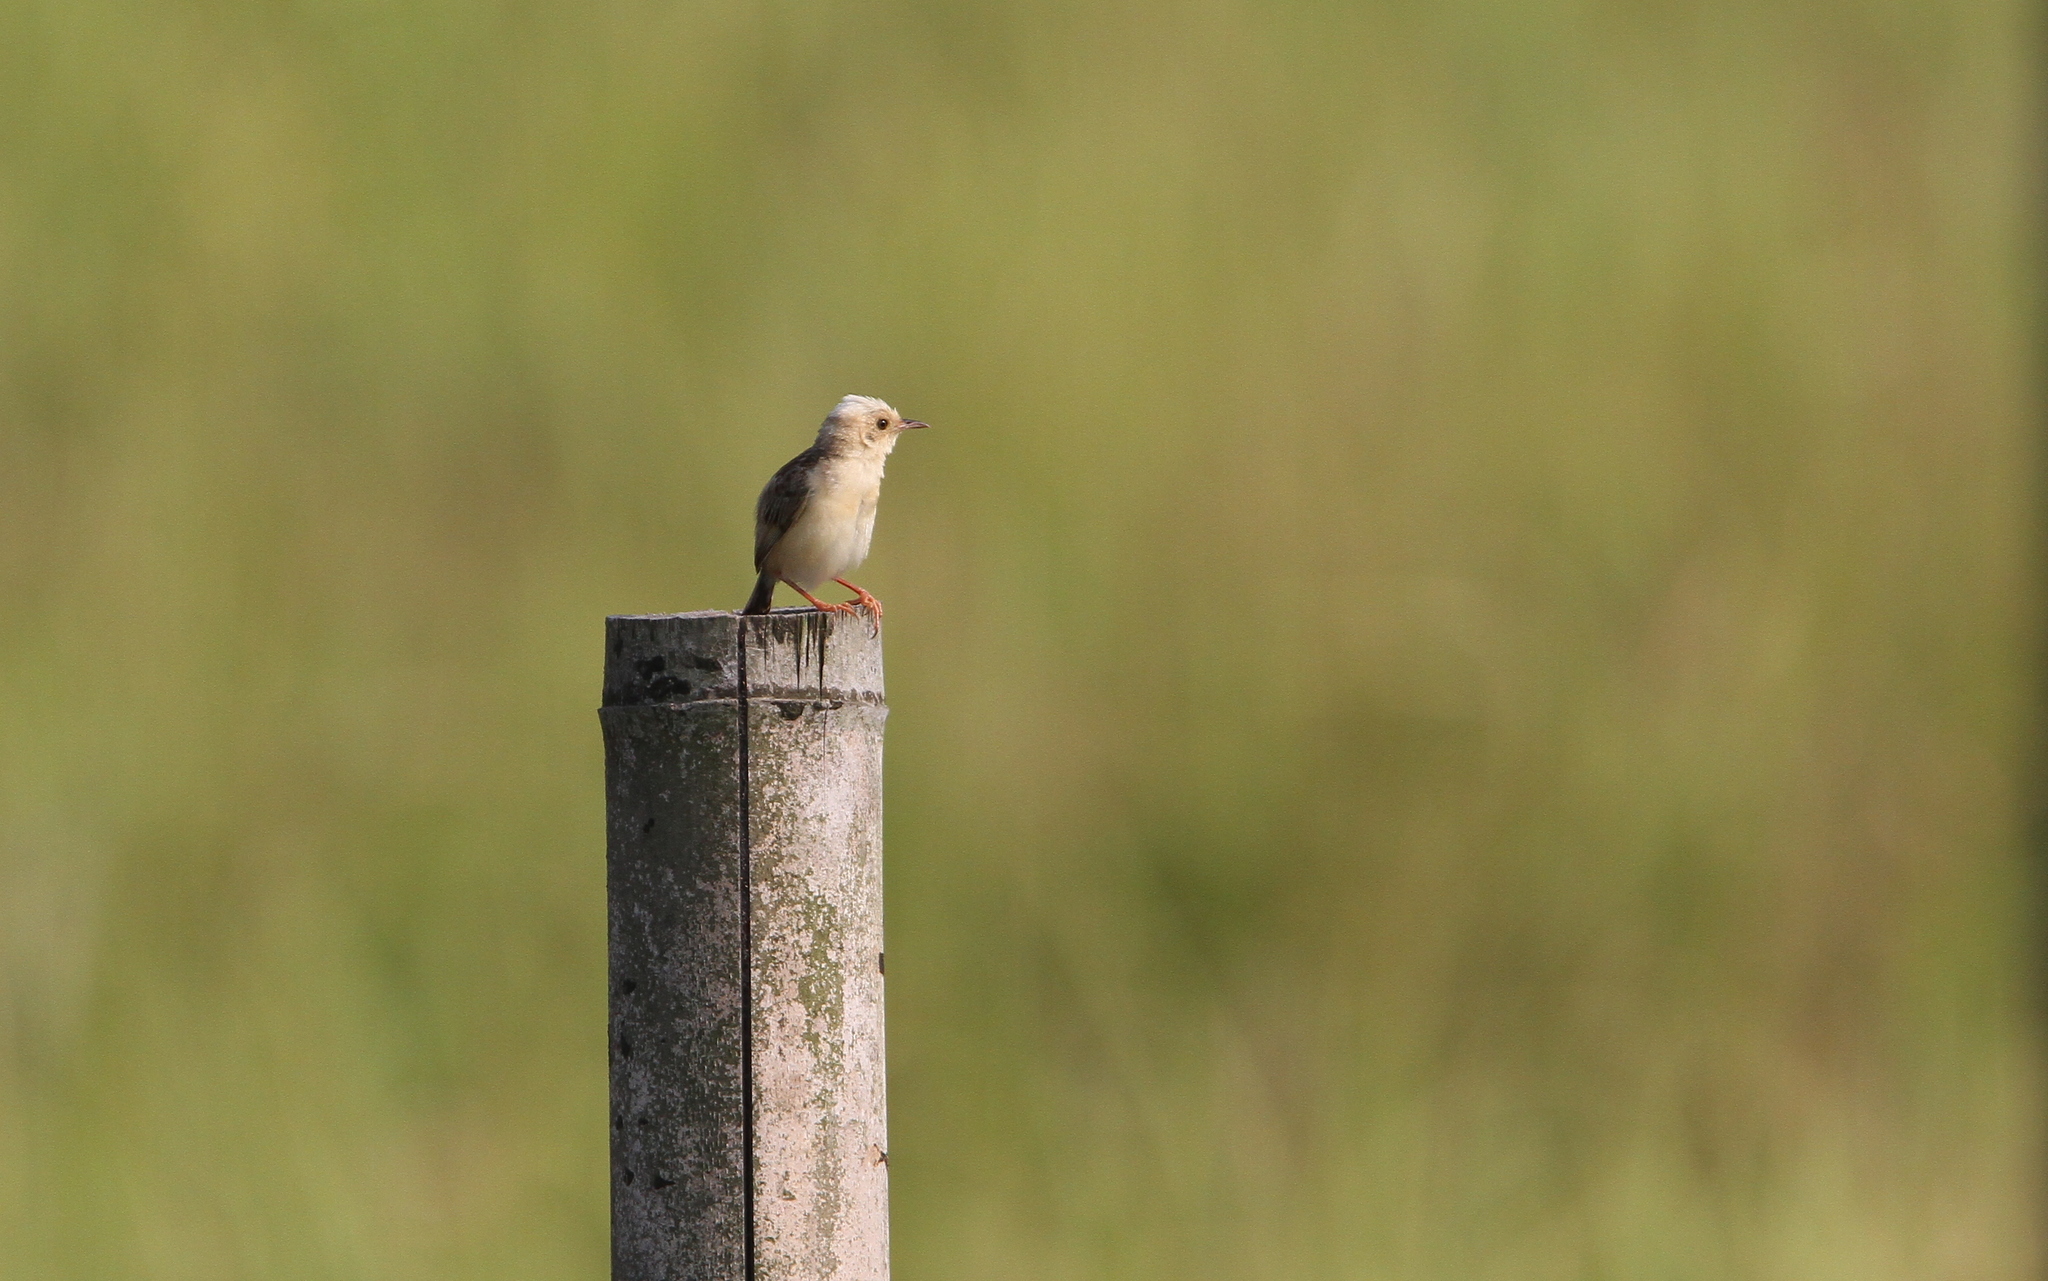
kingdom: Animalia
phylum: Chordata
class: Aves
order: Passeriformes
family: Cisticolidae
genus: Cisticola
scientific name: Cisticola exilis
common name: Golden-headed cisticola
